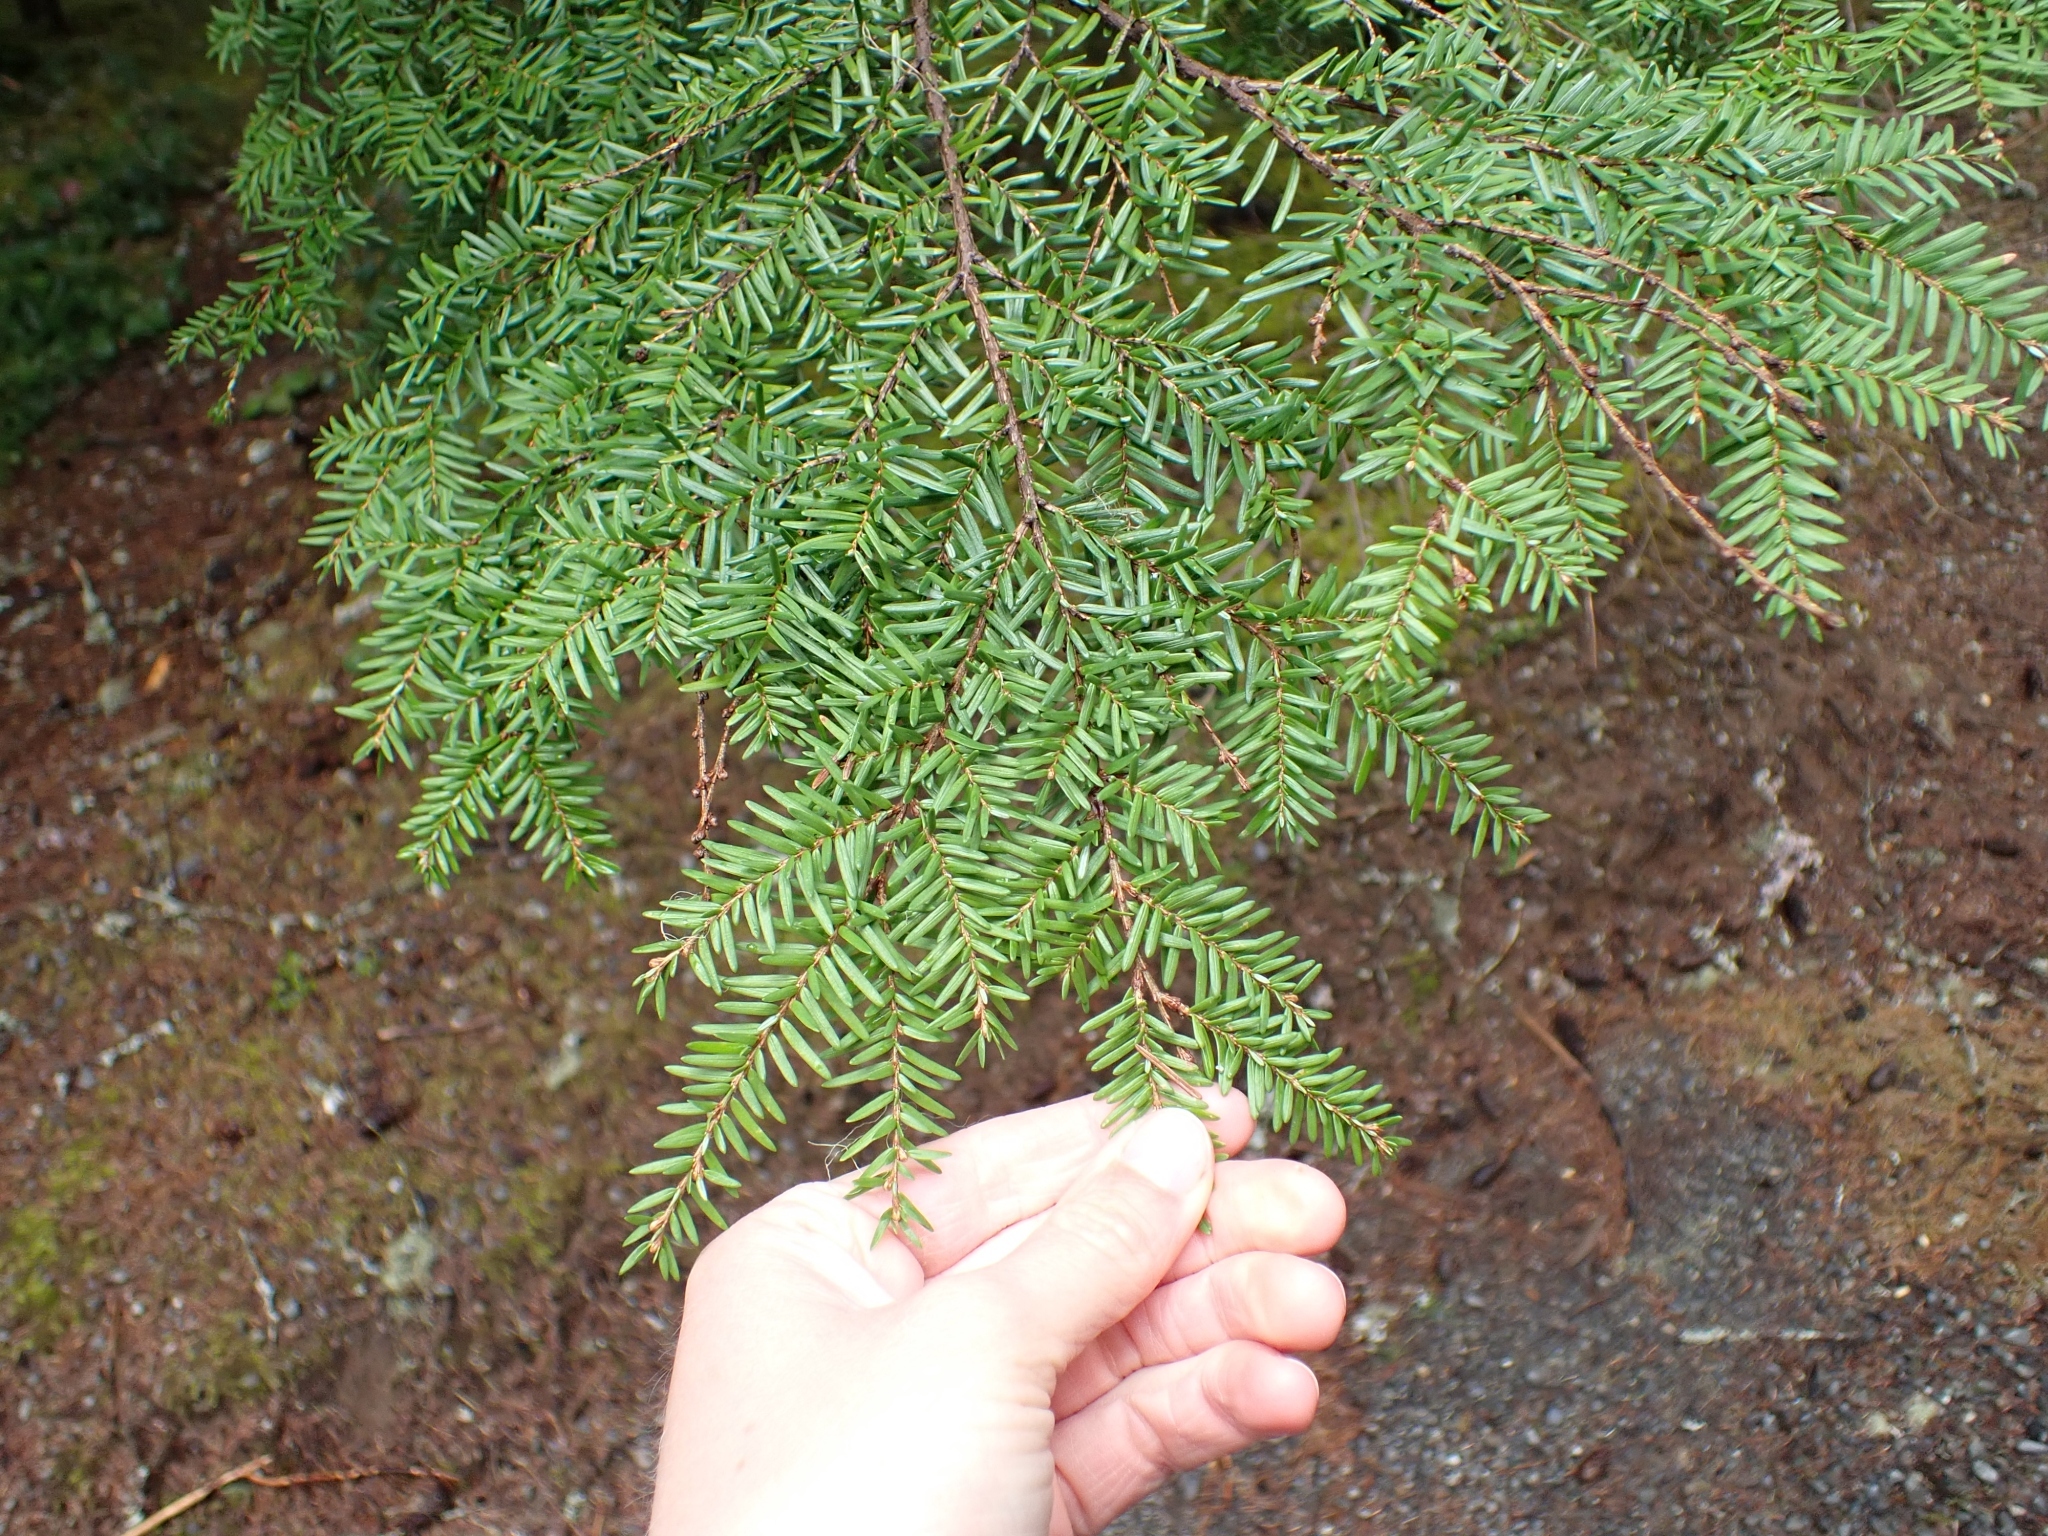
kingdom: Plantae
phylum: Tracheophyta
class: Pinopsida
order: Pinales
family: Pinaceae
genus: Tsuga
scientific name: Tsuga heterophylla
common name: Western hemlock
